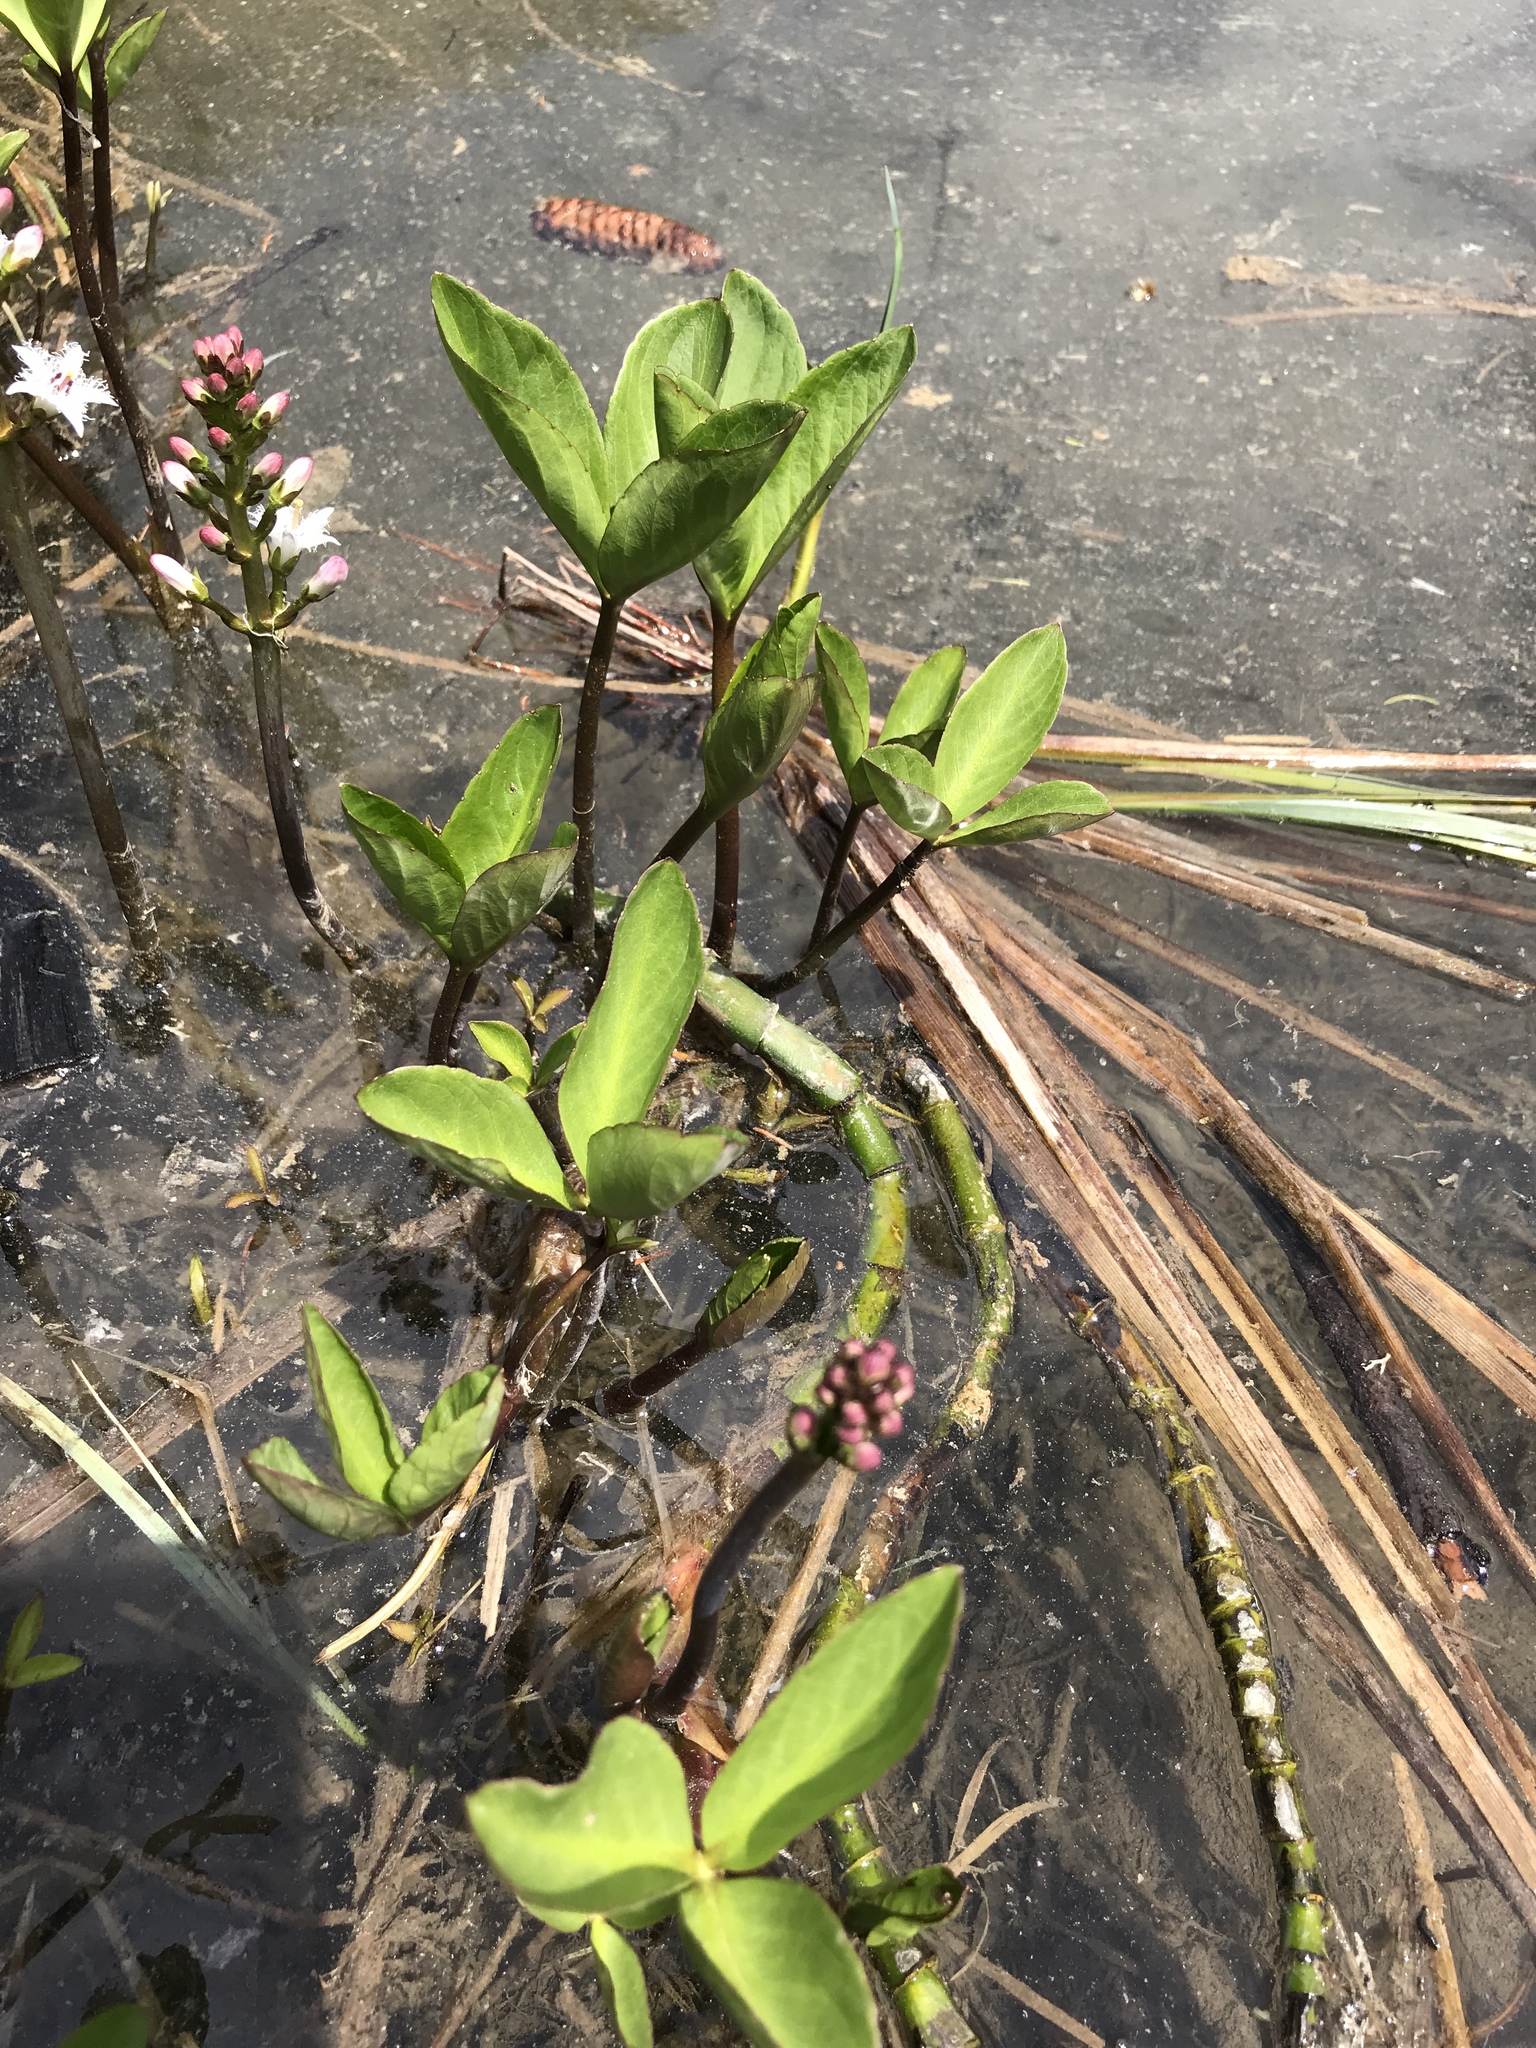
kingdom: Plantae
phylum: Tracheophyta
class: Magnoliopsida
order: Asterales
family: Menyanthaceae
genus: Menyanthes
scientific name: Menyanthes trifoliata
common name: Bogbean
